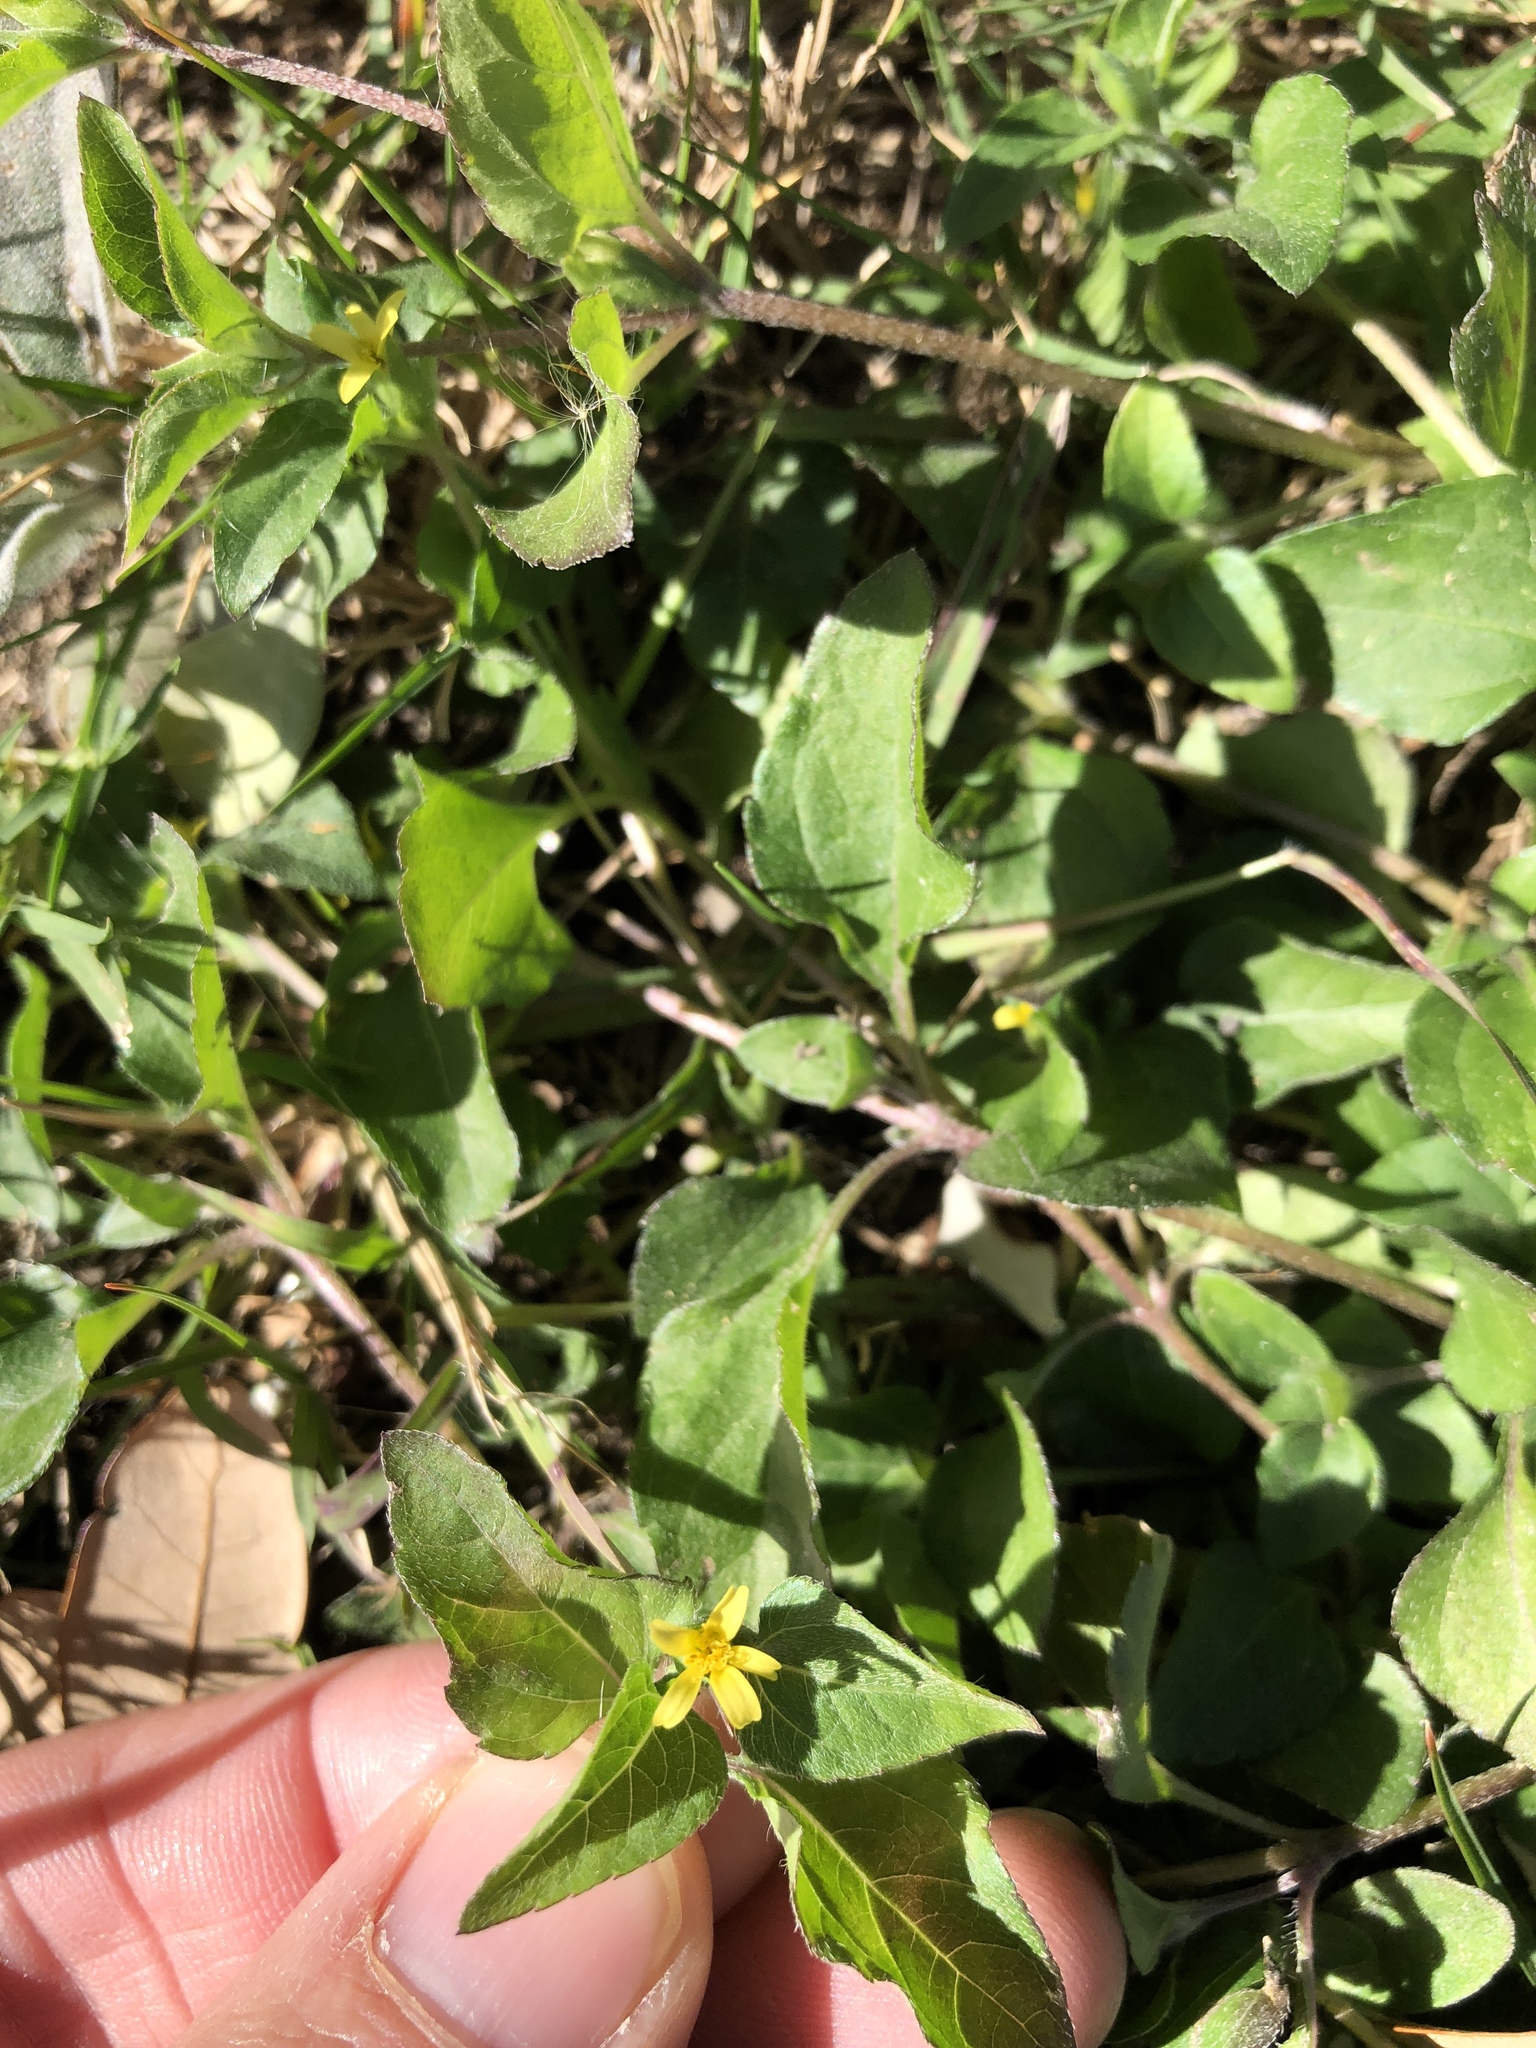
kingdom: Plantae
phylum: Tracheophyta
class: Magnoliopsida
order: Asterales
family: Asteraceae
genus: Calyptocarpus
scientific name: Calyptocarpus vialis
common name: Straggler daisy
